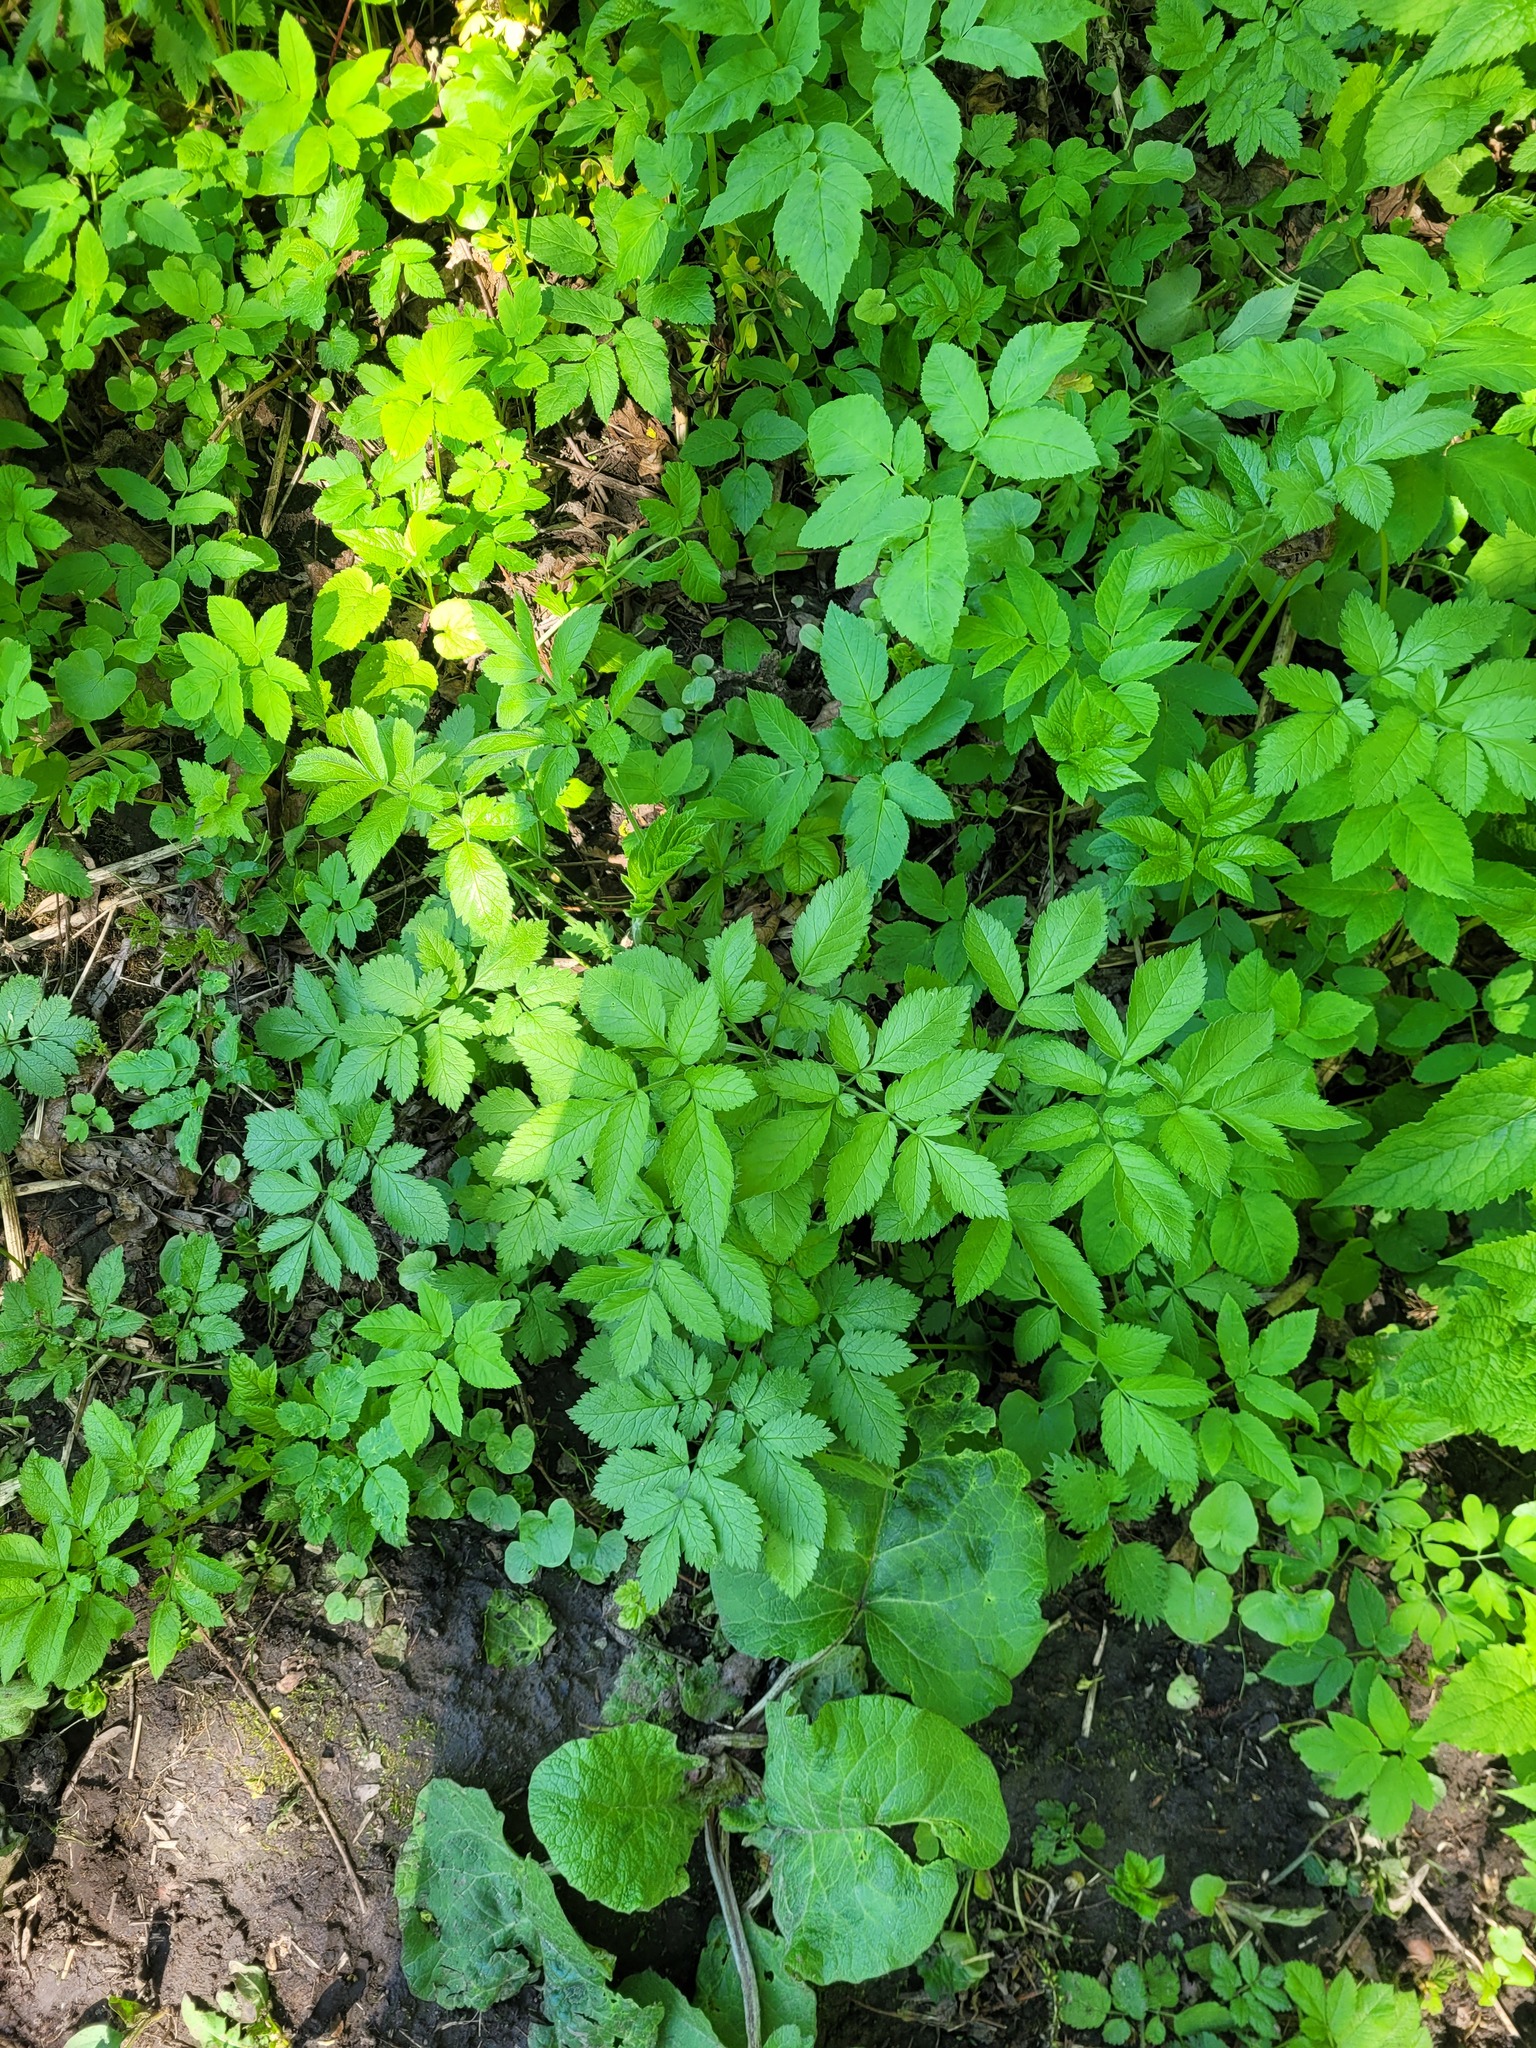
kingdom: Plantae
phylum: Tracheophyta
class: Magnoliopsida
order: Apiales
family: Apiaceae
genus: Chaerophyllum
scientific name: Chaerophyllum aromaticum
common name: Broadleaf chervil
